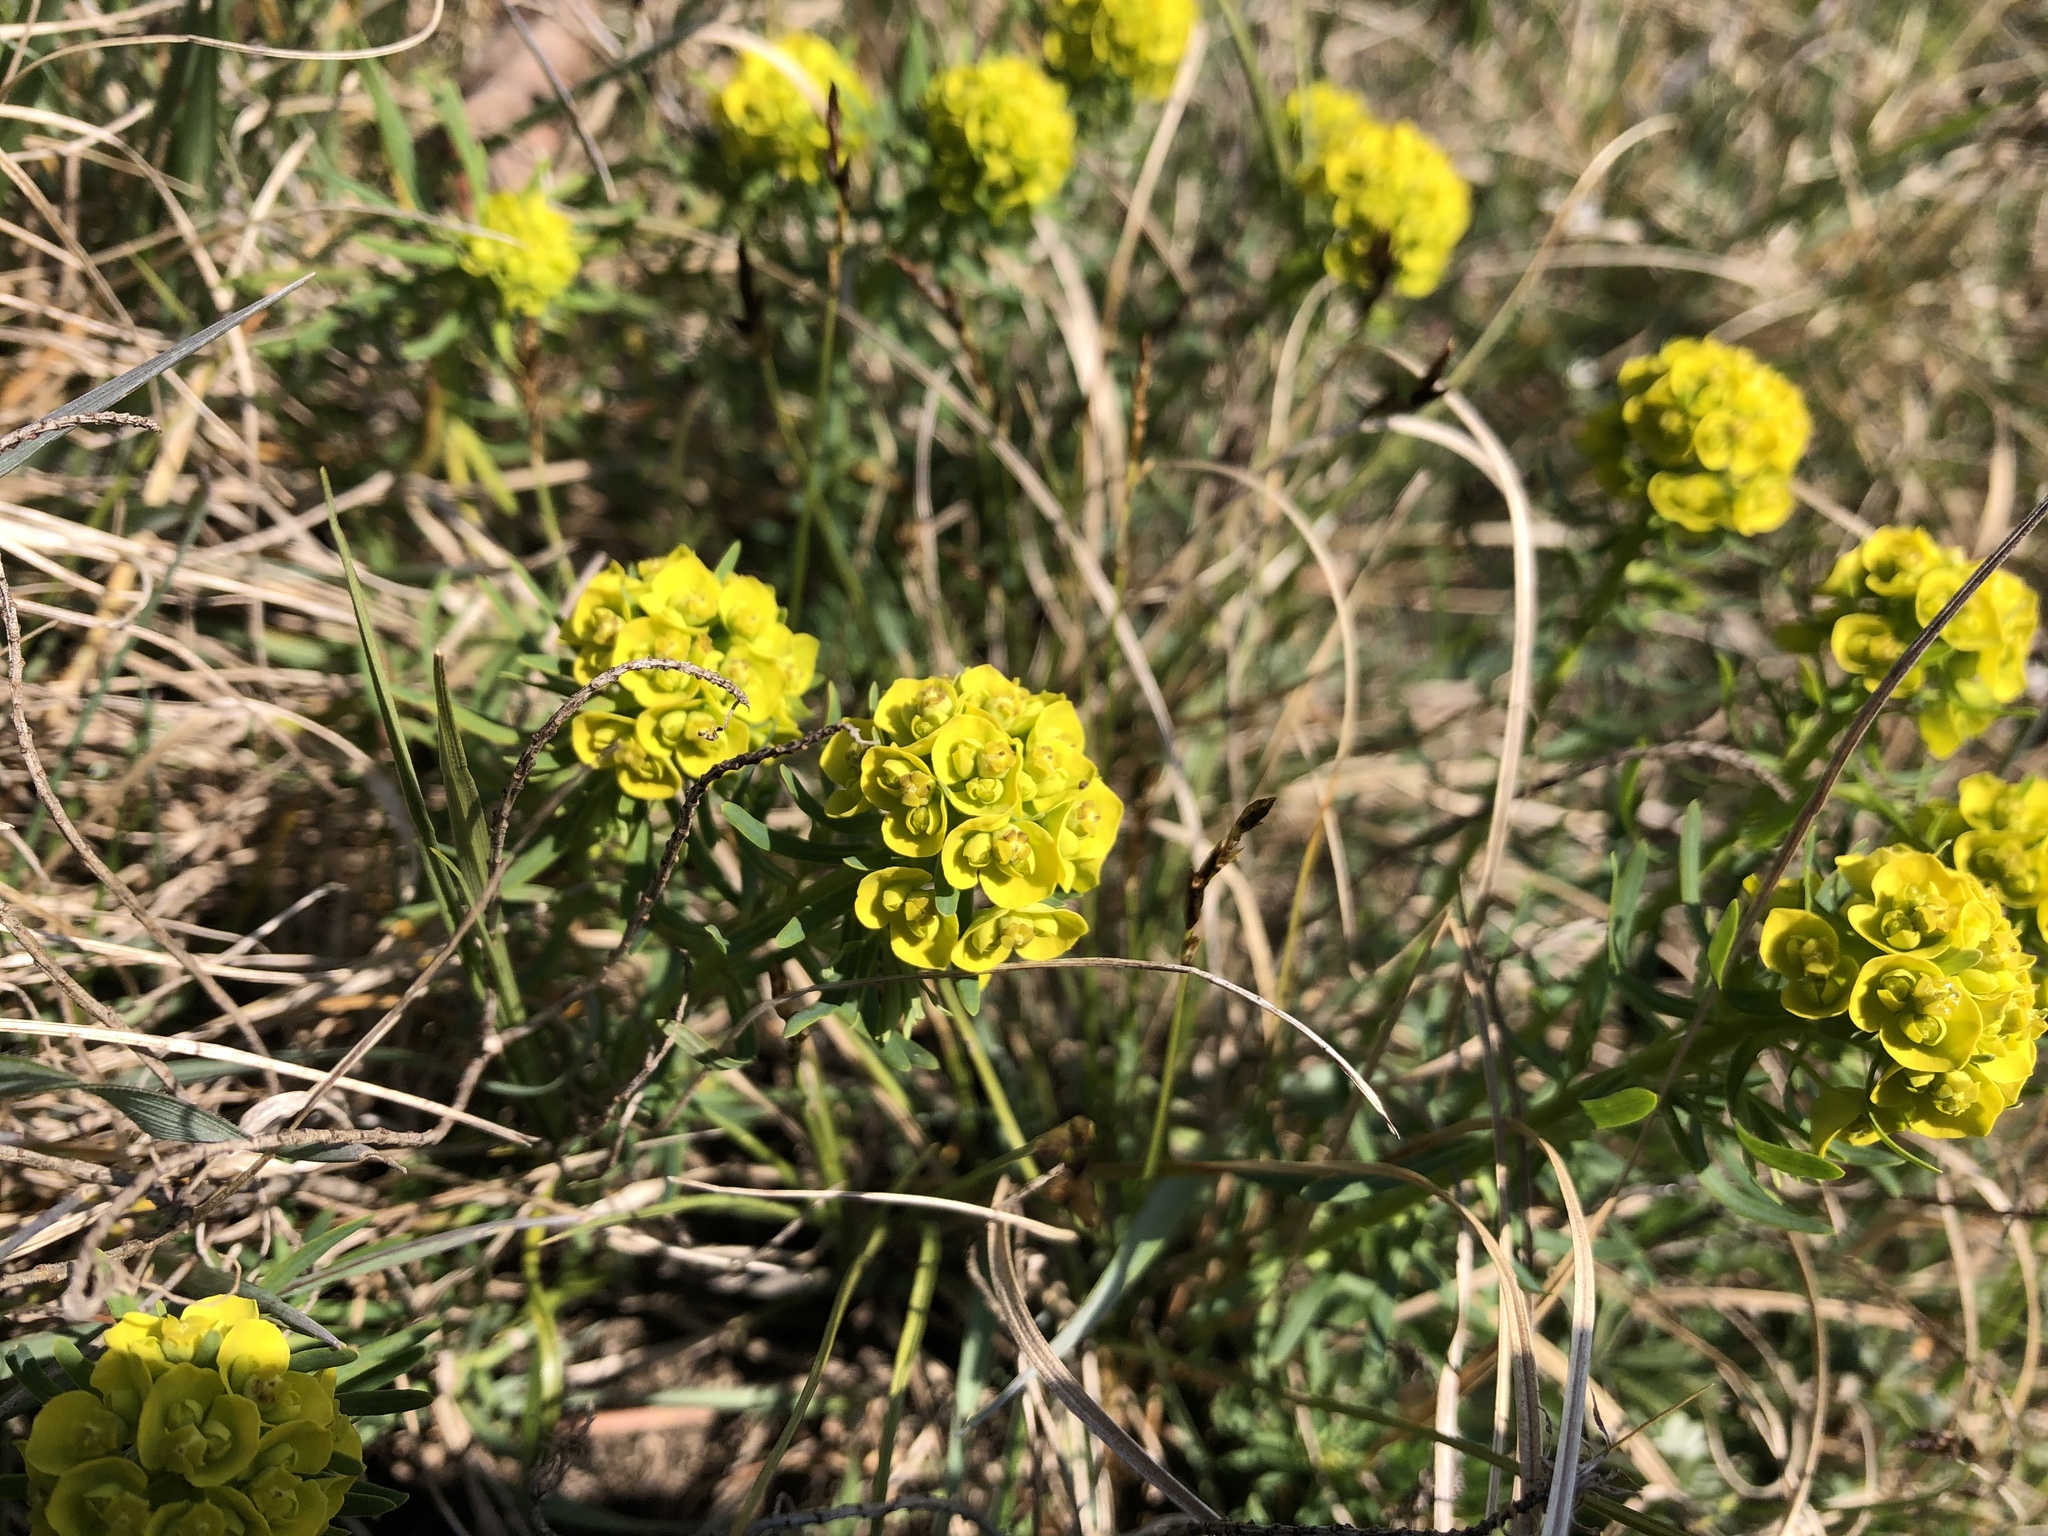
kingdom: Plantae
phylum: Tracheophyta
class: Magnoliopsida
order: Malpighiales
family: Euphorbiaceae
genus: Euphorbia
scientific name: Euphorbia cyparissias
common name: Cypress spurge
